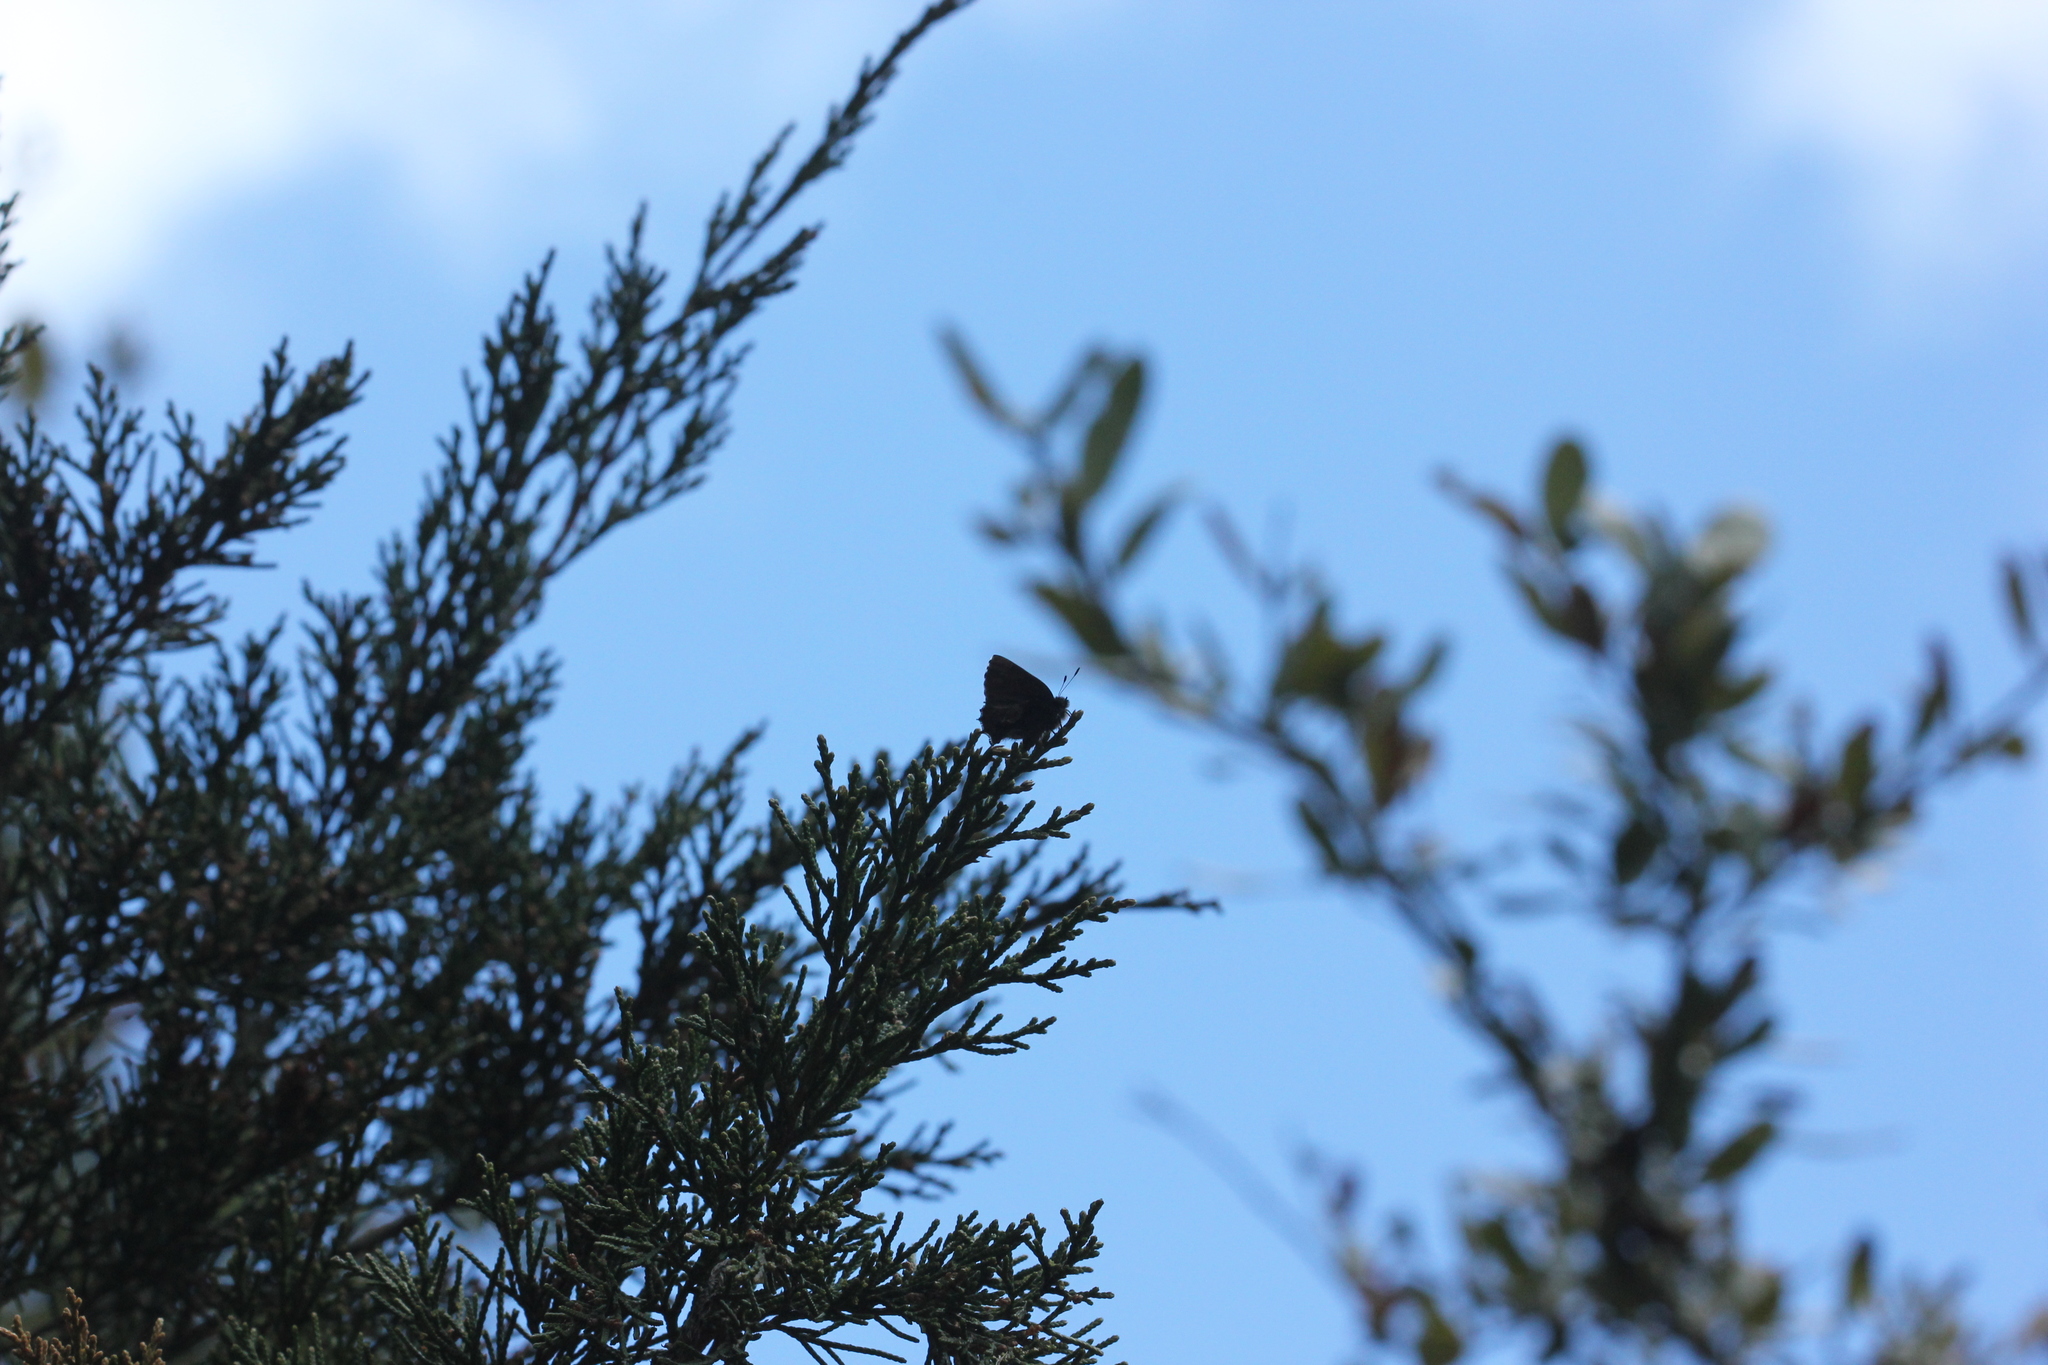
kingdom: Animalia
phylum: Arthropoda
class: Insecta
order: Lepidoptera
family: Lycaenidae
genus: Mitoura
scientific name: Mitoura gryneus
